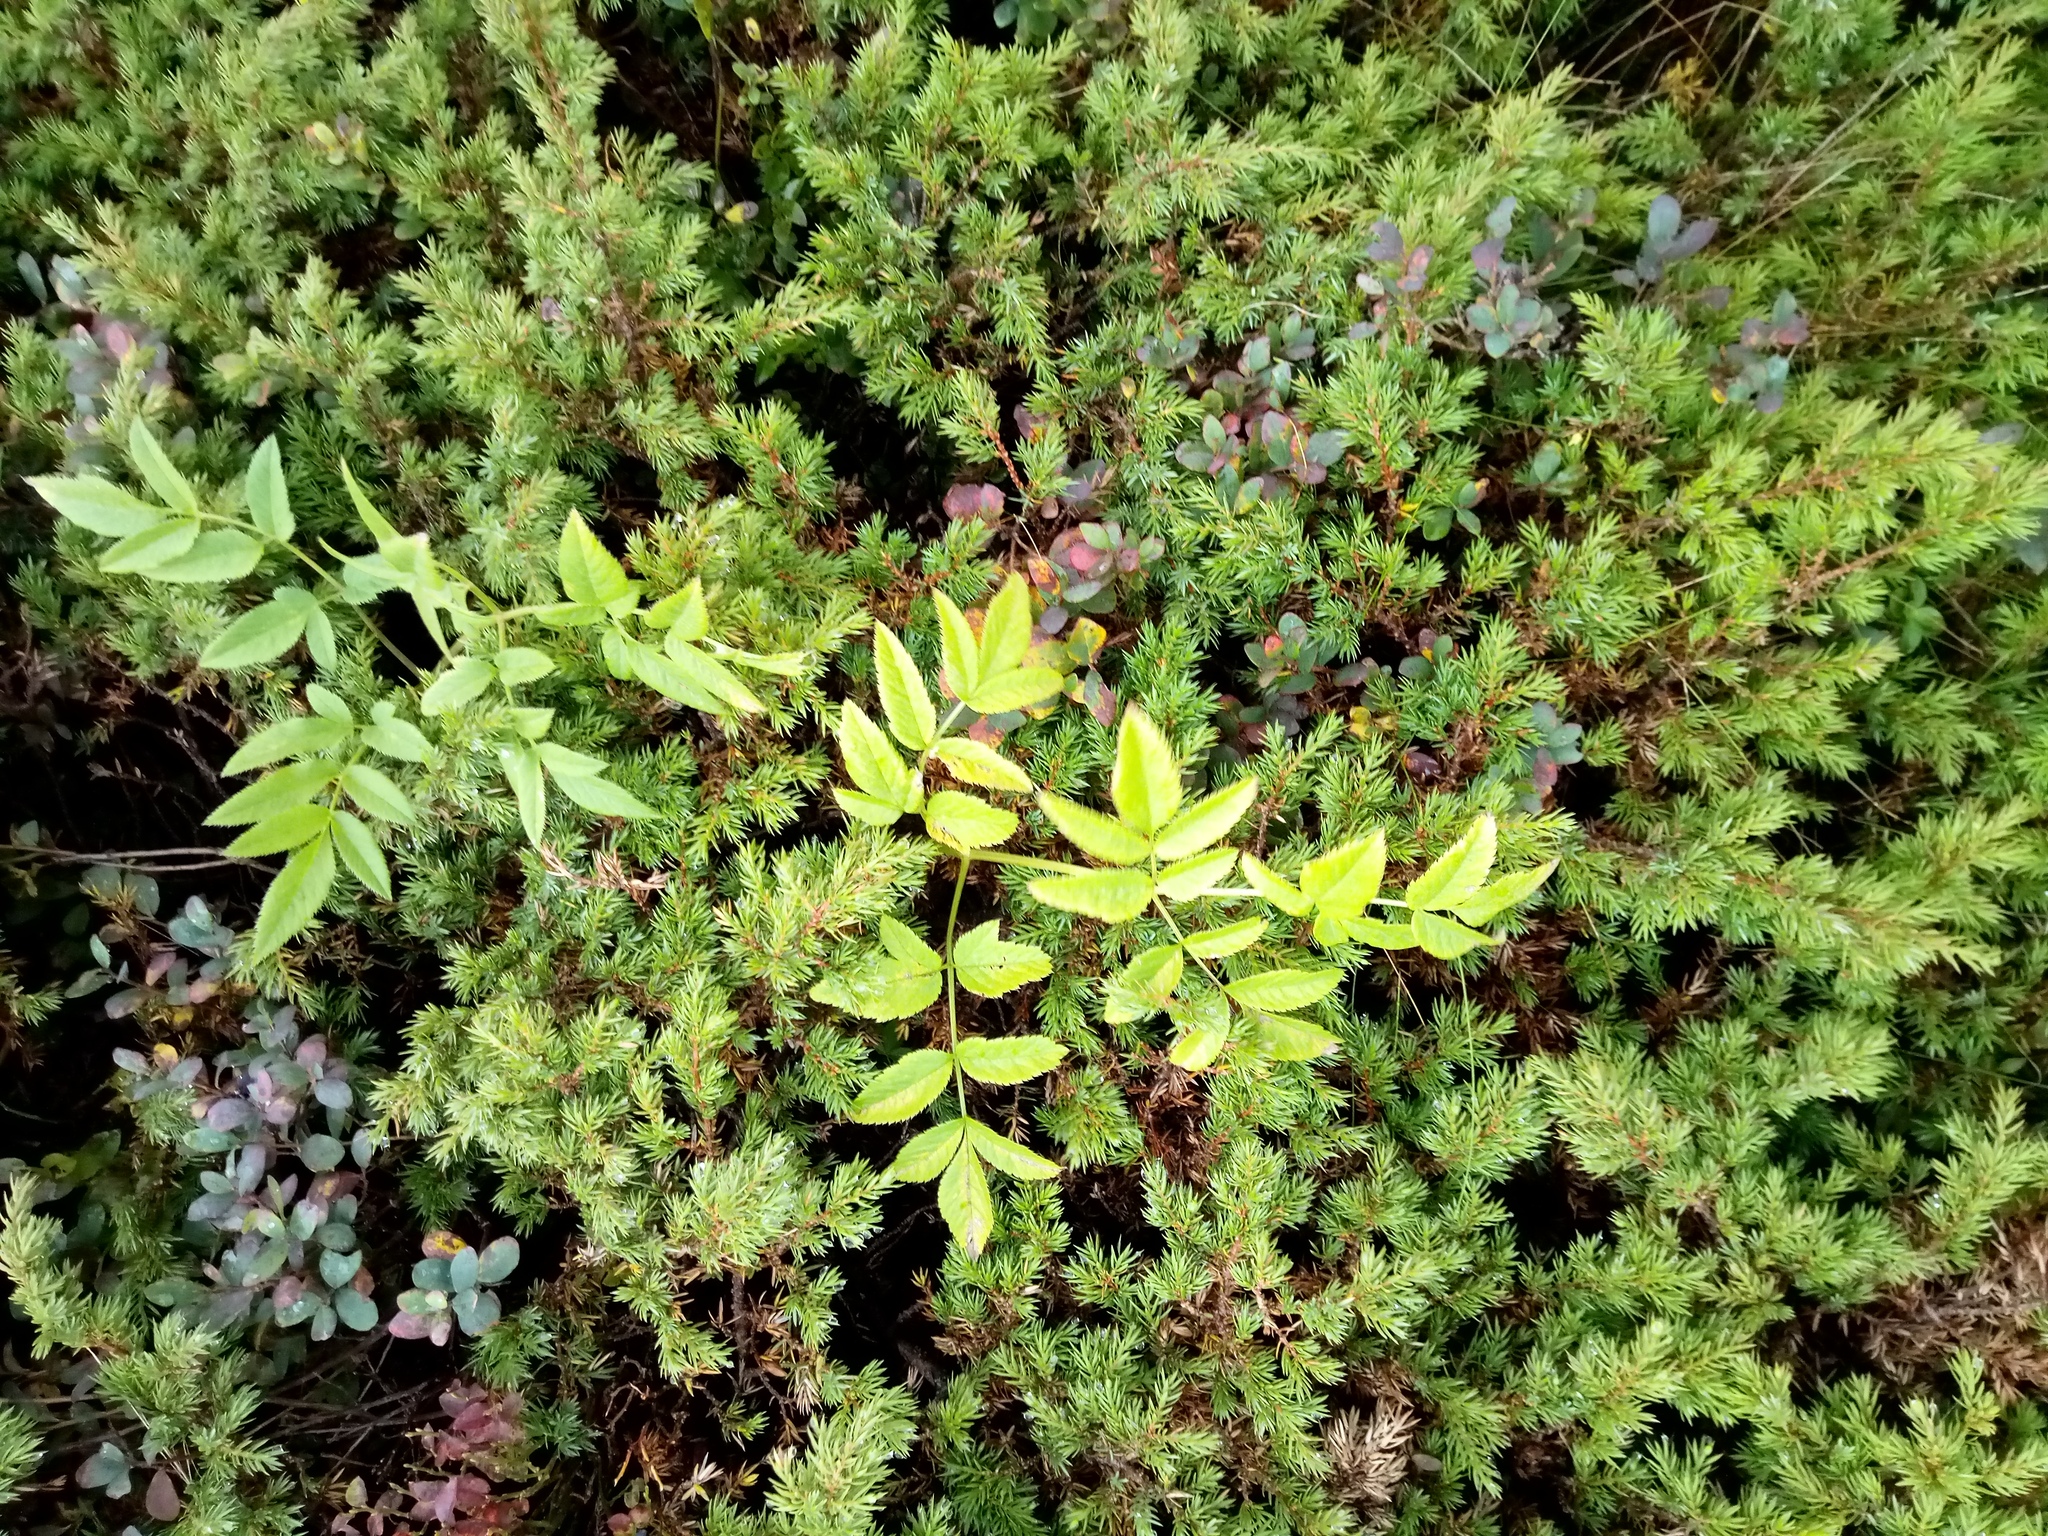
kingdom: Plantae
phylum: Tracheophyta
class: Magnoliopsida
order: Apiales
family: Apiaceae
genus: Angelica
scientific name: Angelica sylvestris
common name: Wild angelica
